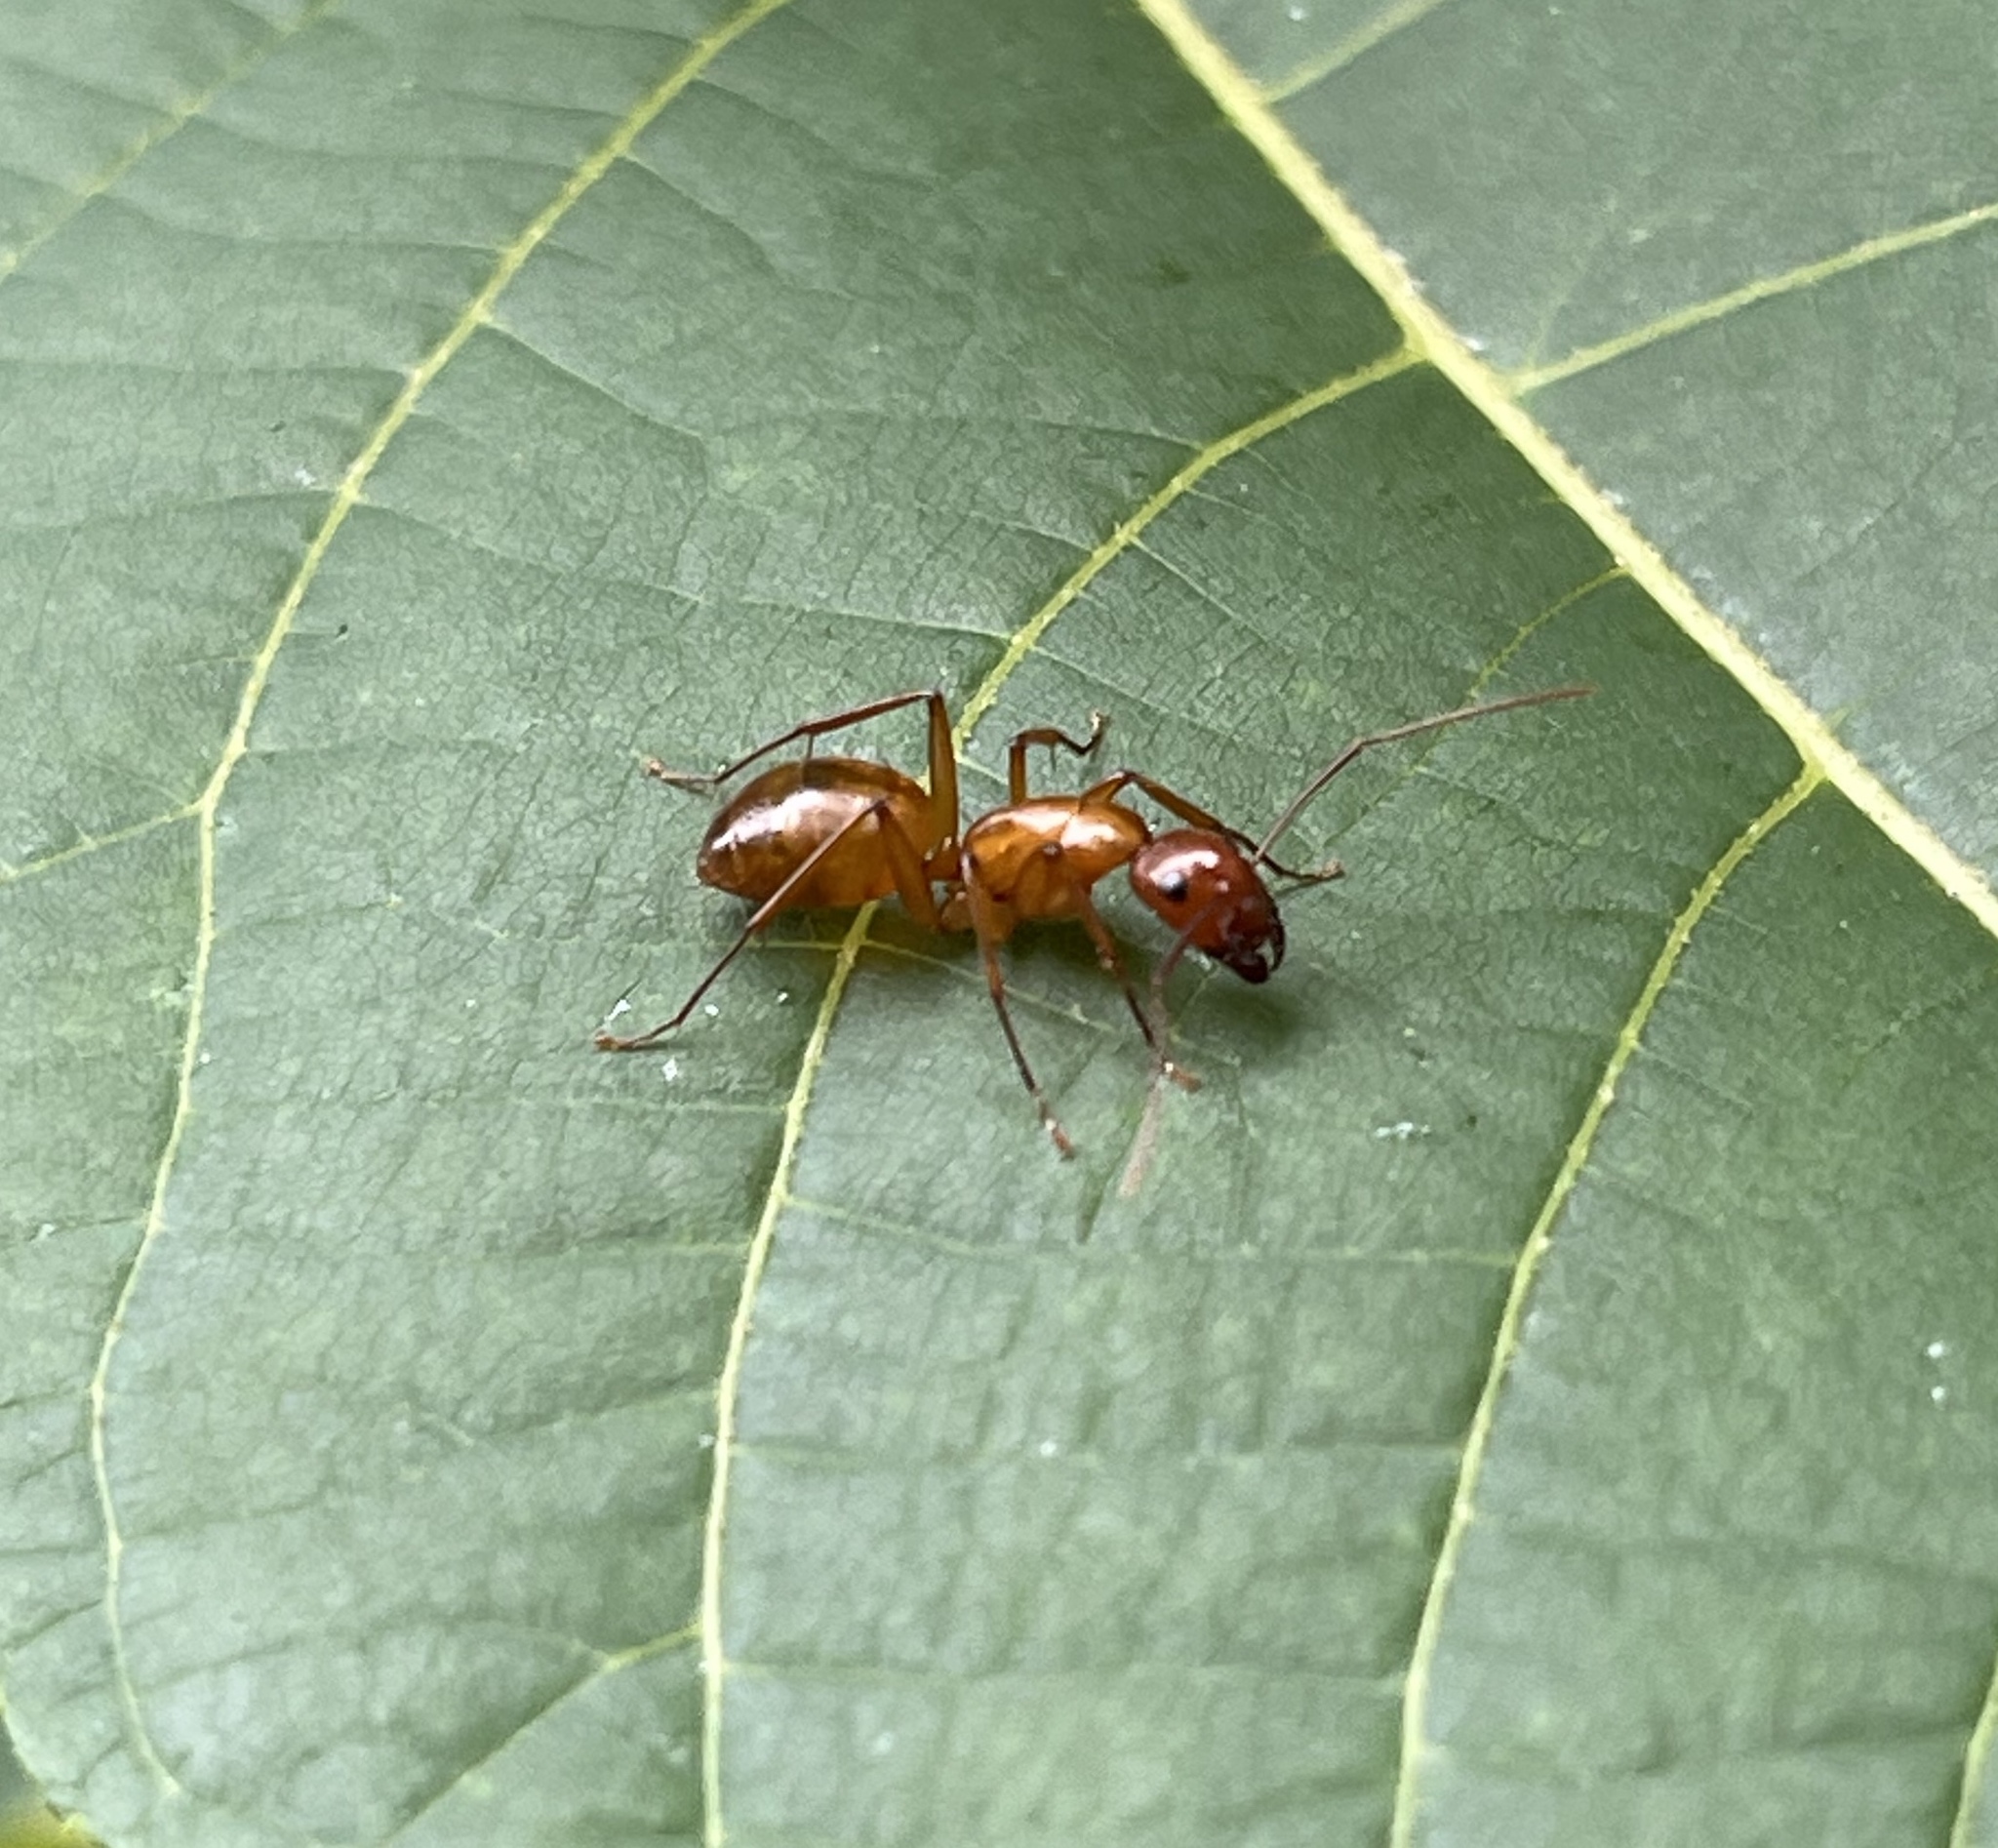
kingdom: Animalia
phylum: Arthropoda
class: Insecta
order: Hymenoptera
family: Formicidae
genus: Camponotus
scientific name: Camponotus castaneus
